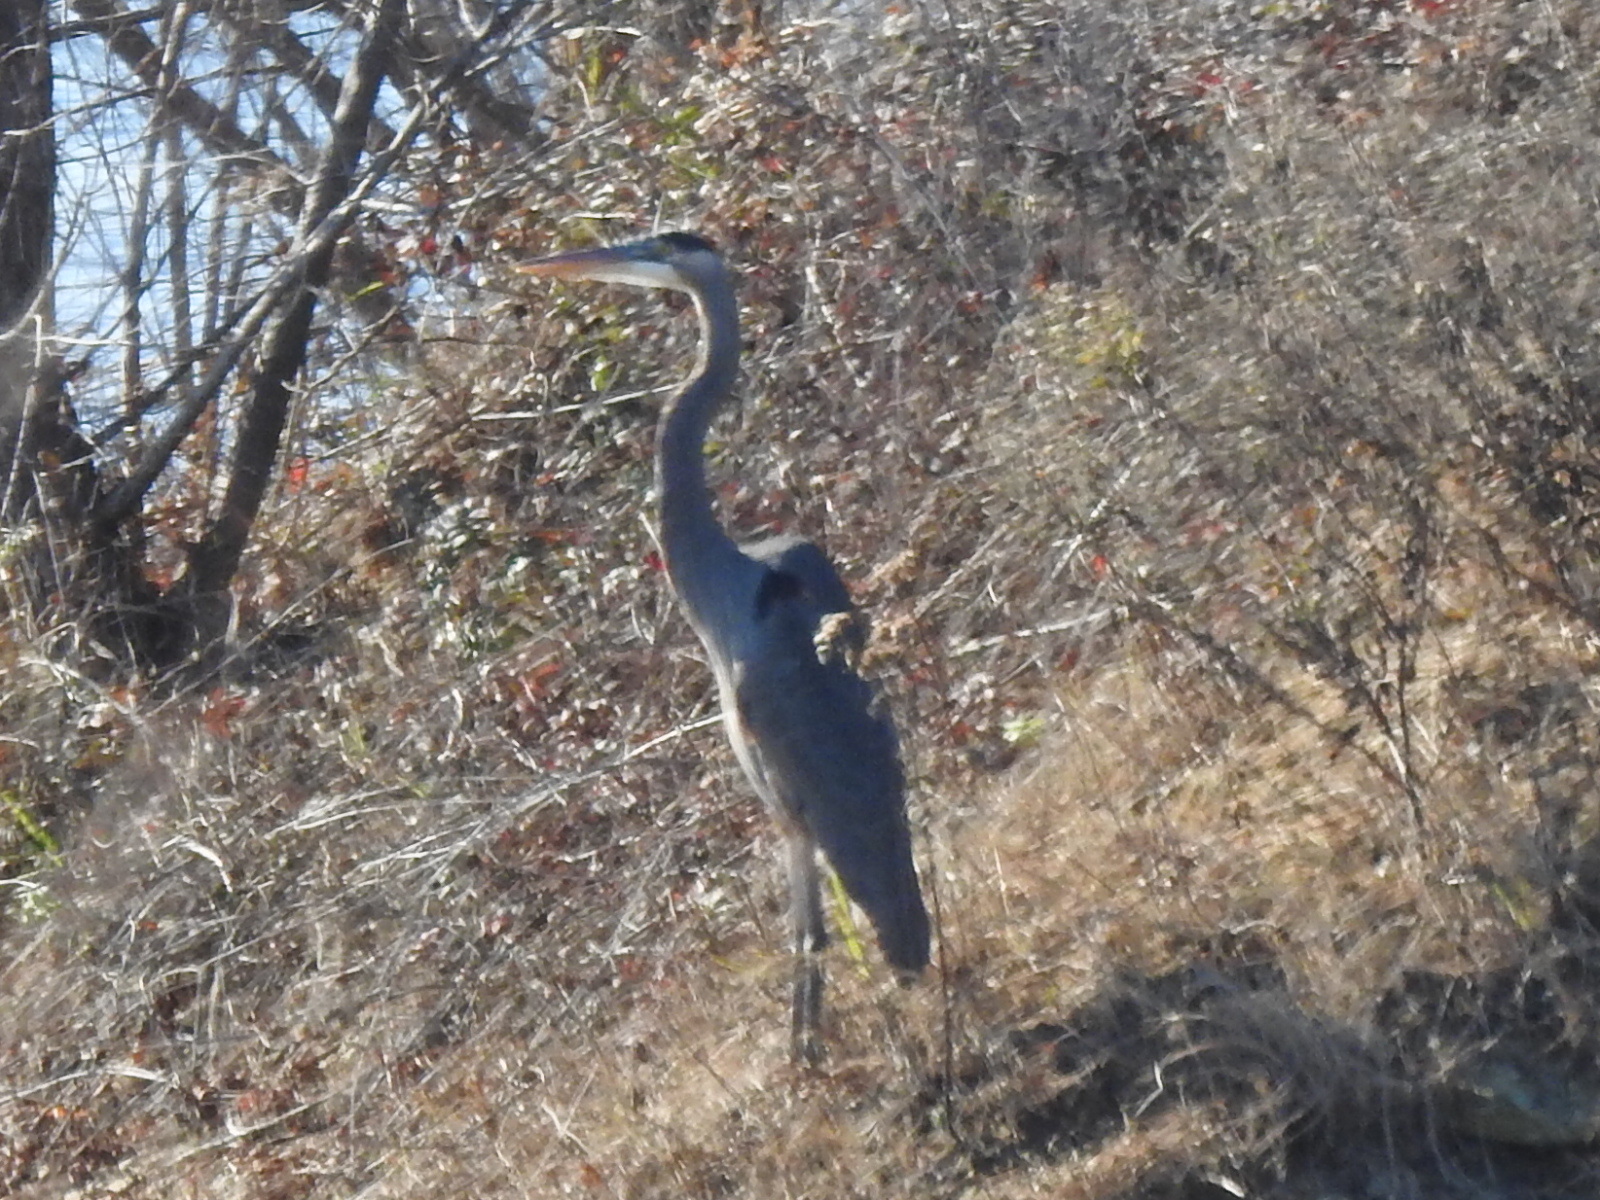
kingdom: Animalia
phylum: Chordata
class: Aves
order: Pelecaniformes
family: Ardeidae
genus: Ardea
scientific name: Ardea herodias
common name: Great blue heron
